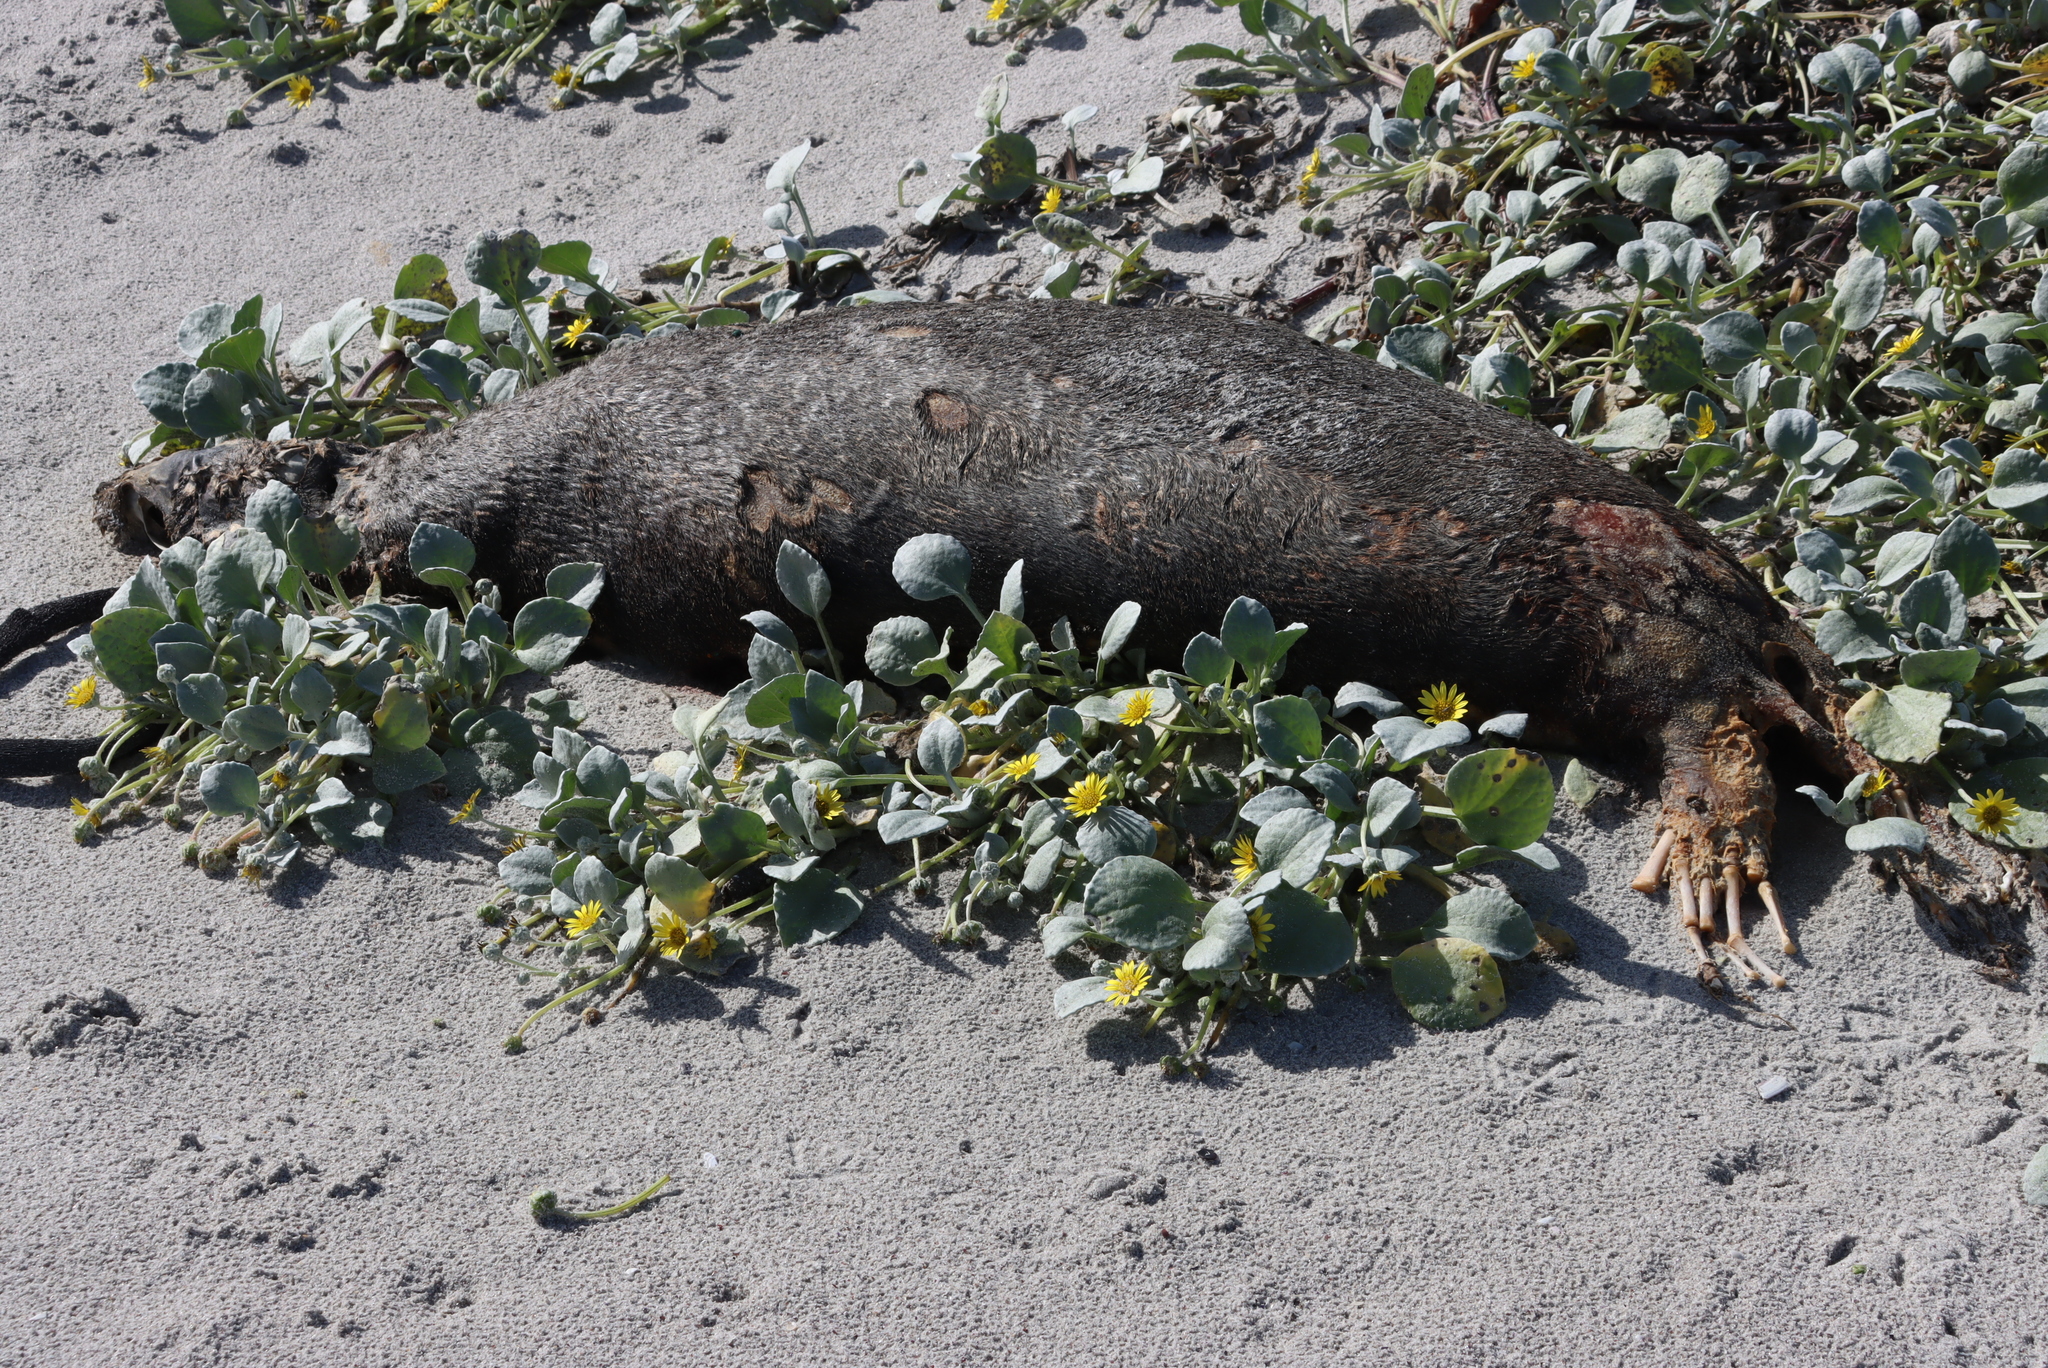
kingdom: Animalia
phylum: Chordata
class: Mammalia
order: Carnivora
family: Otariidae
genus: Arctocephalus
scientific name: Arctocephalus pusillus
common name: Brown fur seal
